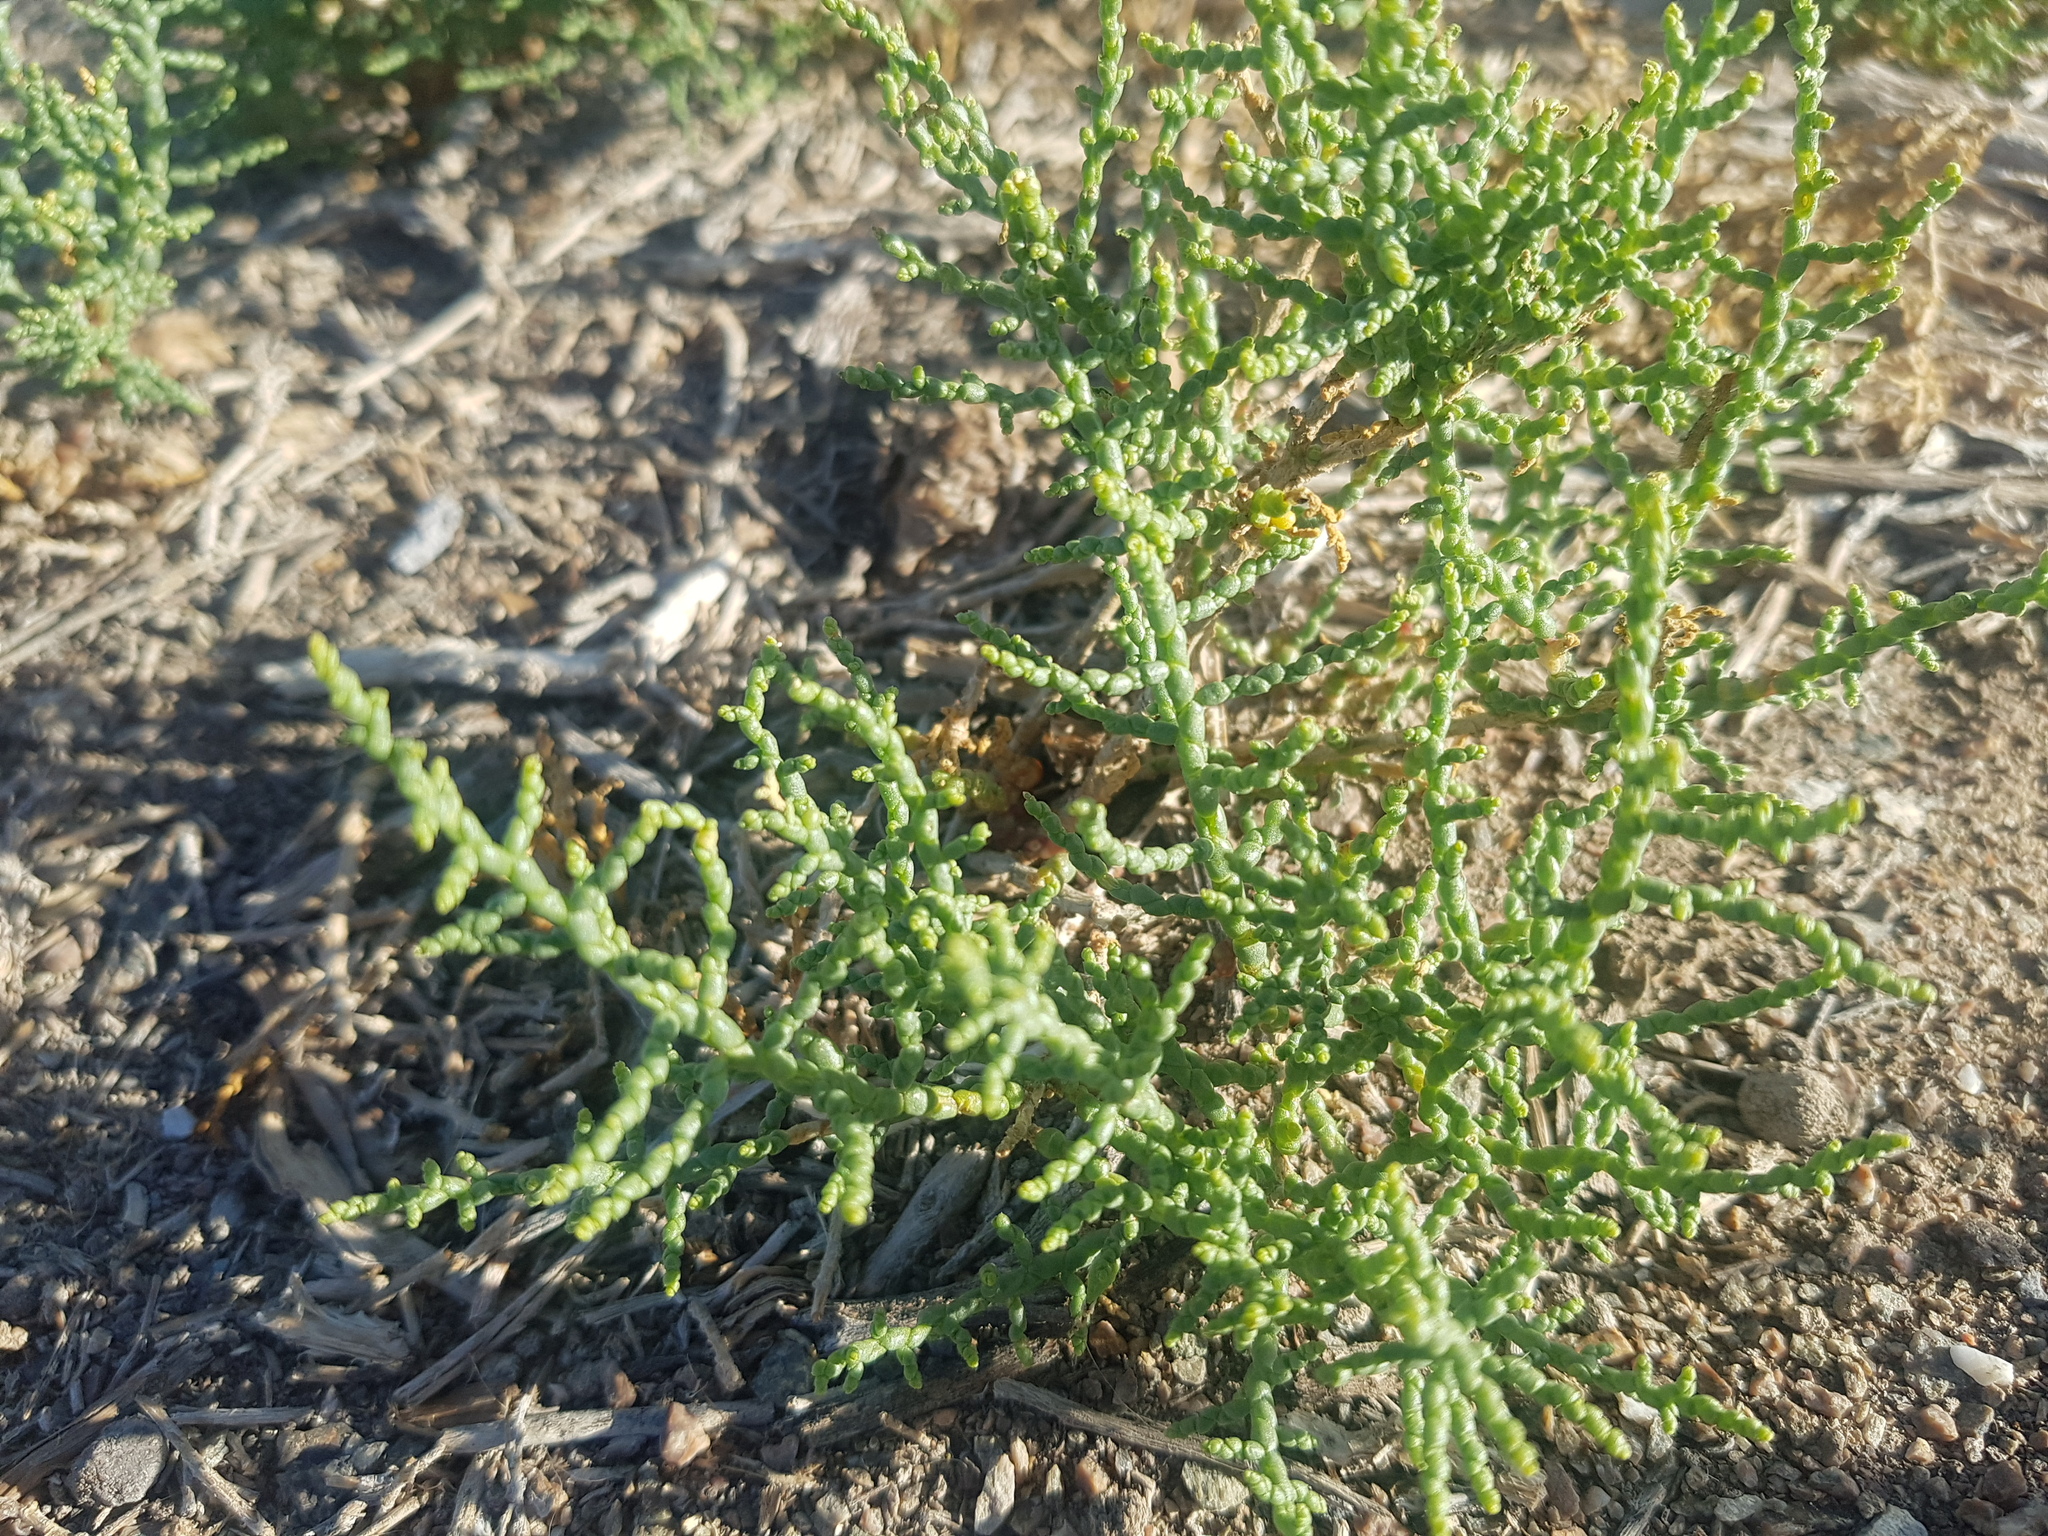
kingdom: Plantae
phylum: Tracheophyta
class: Magnoliopsida
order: Caryophyllales
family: Amaranthaceae
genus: Kalidium
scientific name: Kalidium gracile
